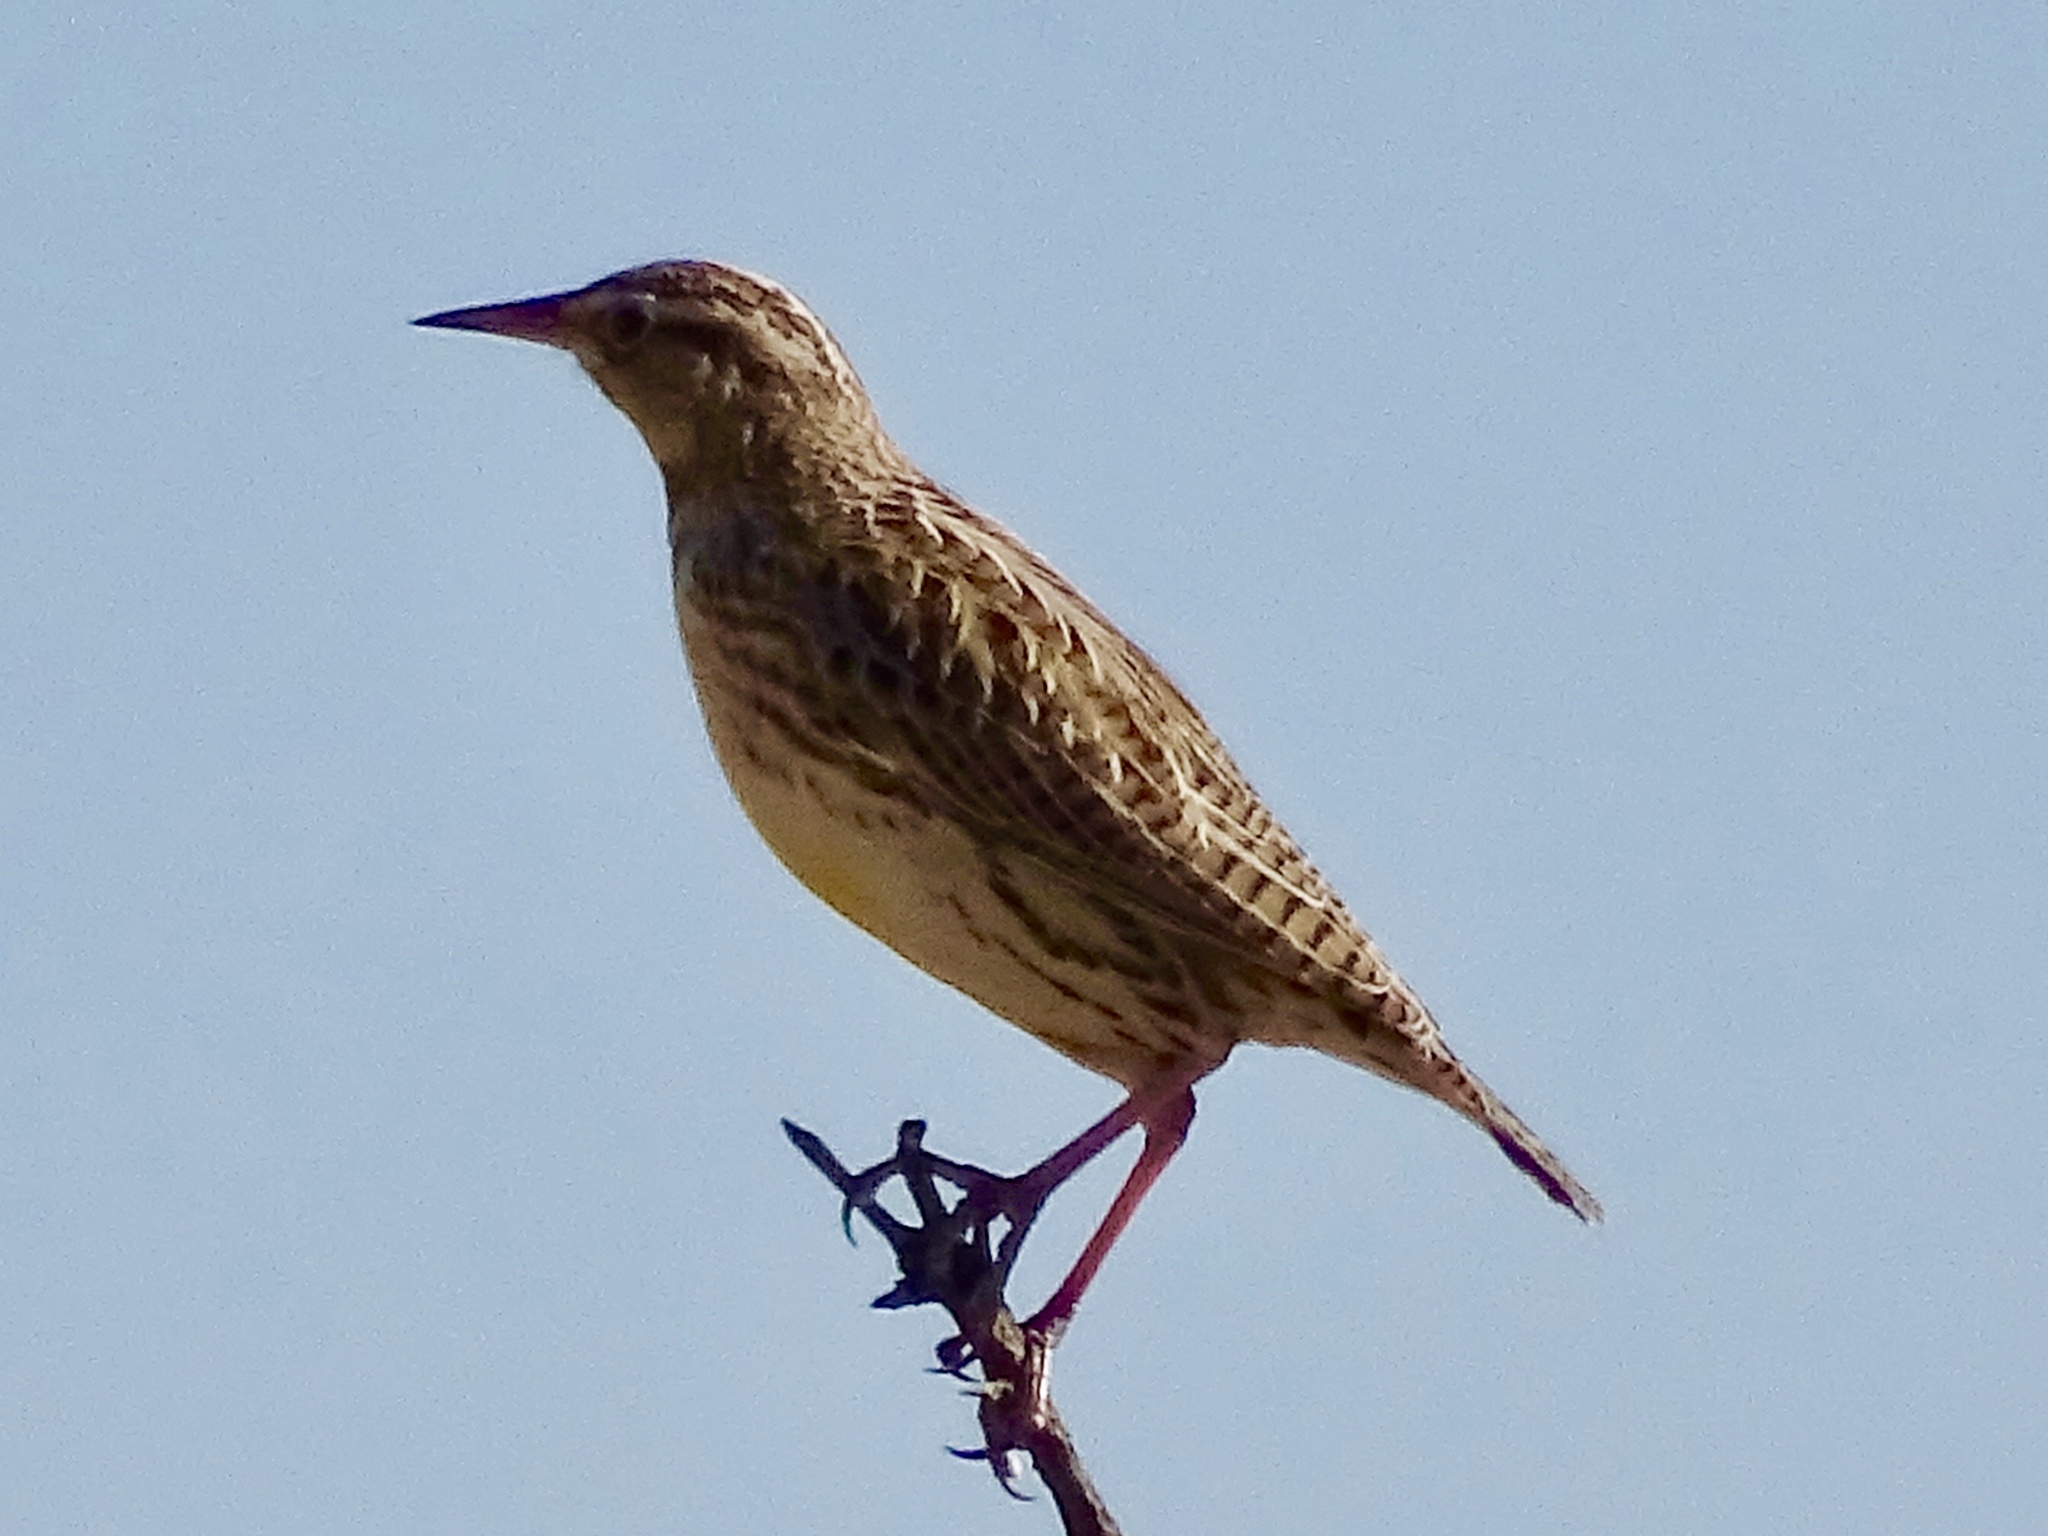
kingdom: Animalia
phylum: Chordata
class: Aves
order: Passeriformes
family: Icteridae
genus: Sturnella
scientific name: Sturnella neglecta
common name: Western meadowlark
